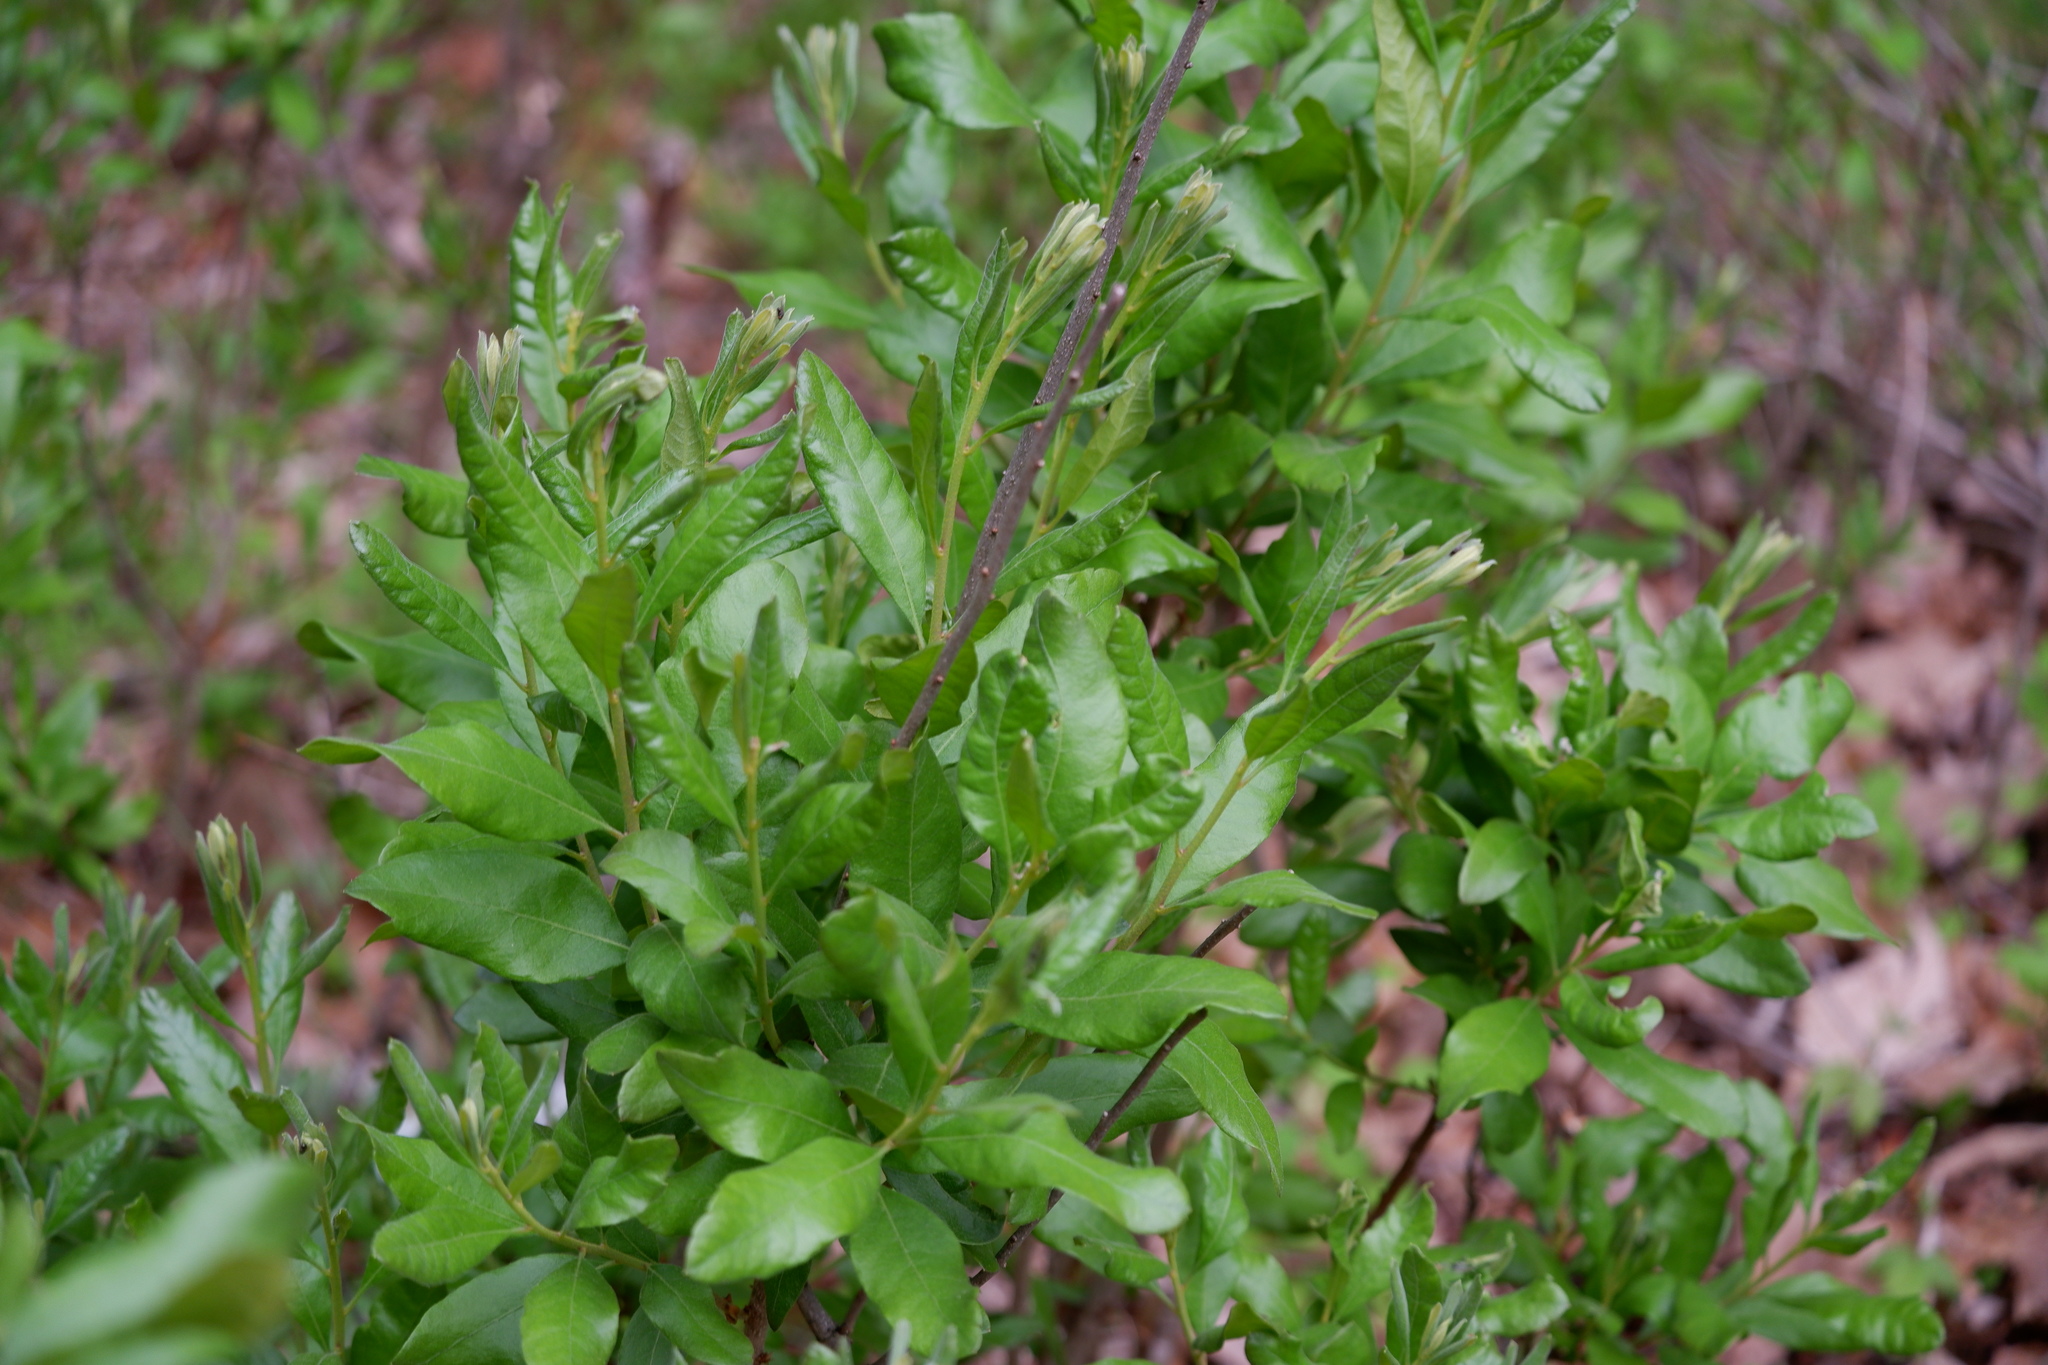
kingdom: Plantae
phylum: Tracheophyta
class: Magnoliopsida
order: Fagales
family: Myricaceae
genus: Morella
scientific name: Morella pensylvanica
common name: Northern bayberry
